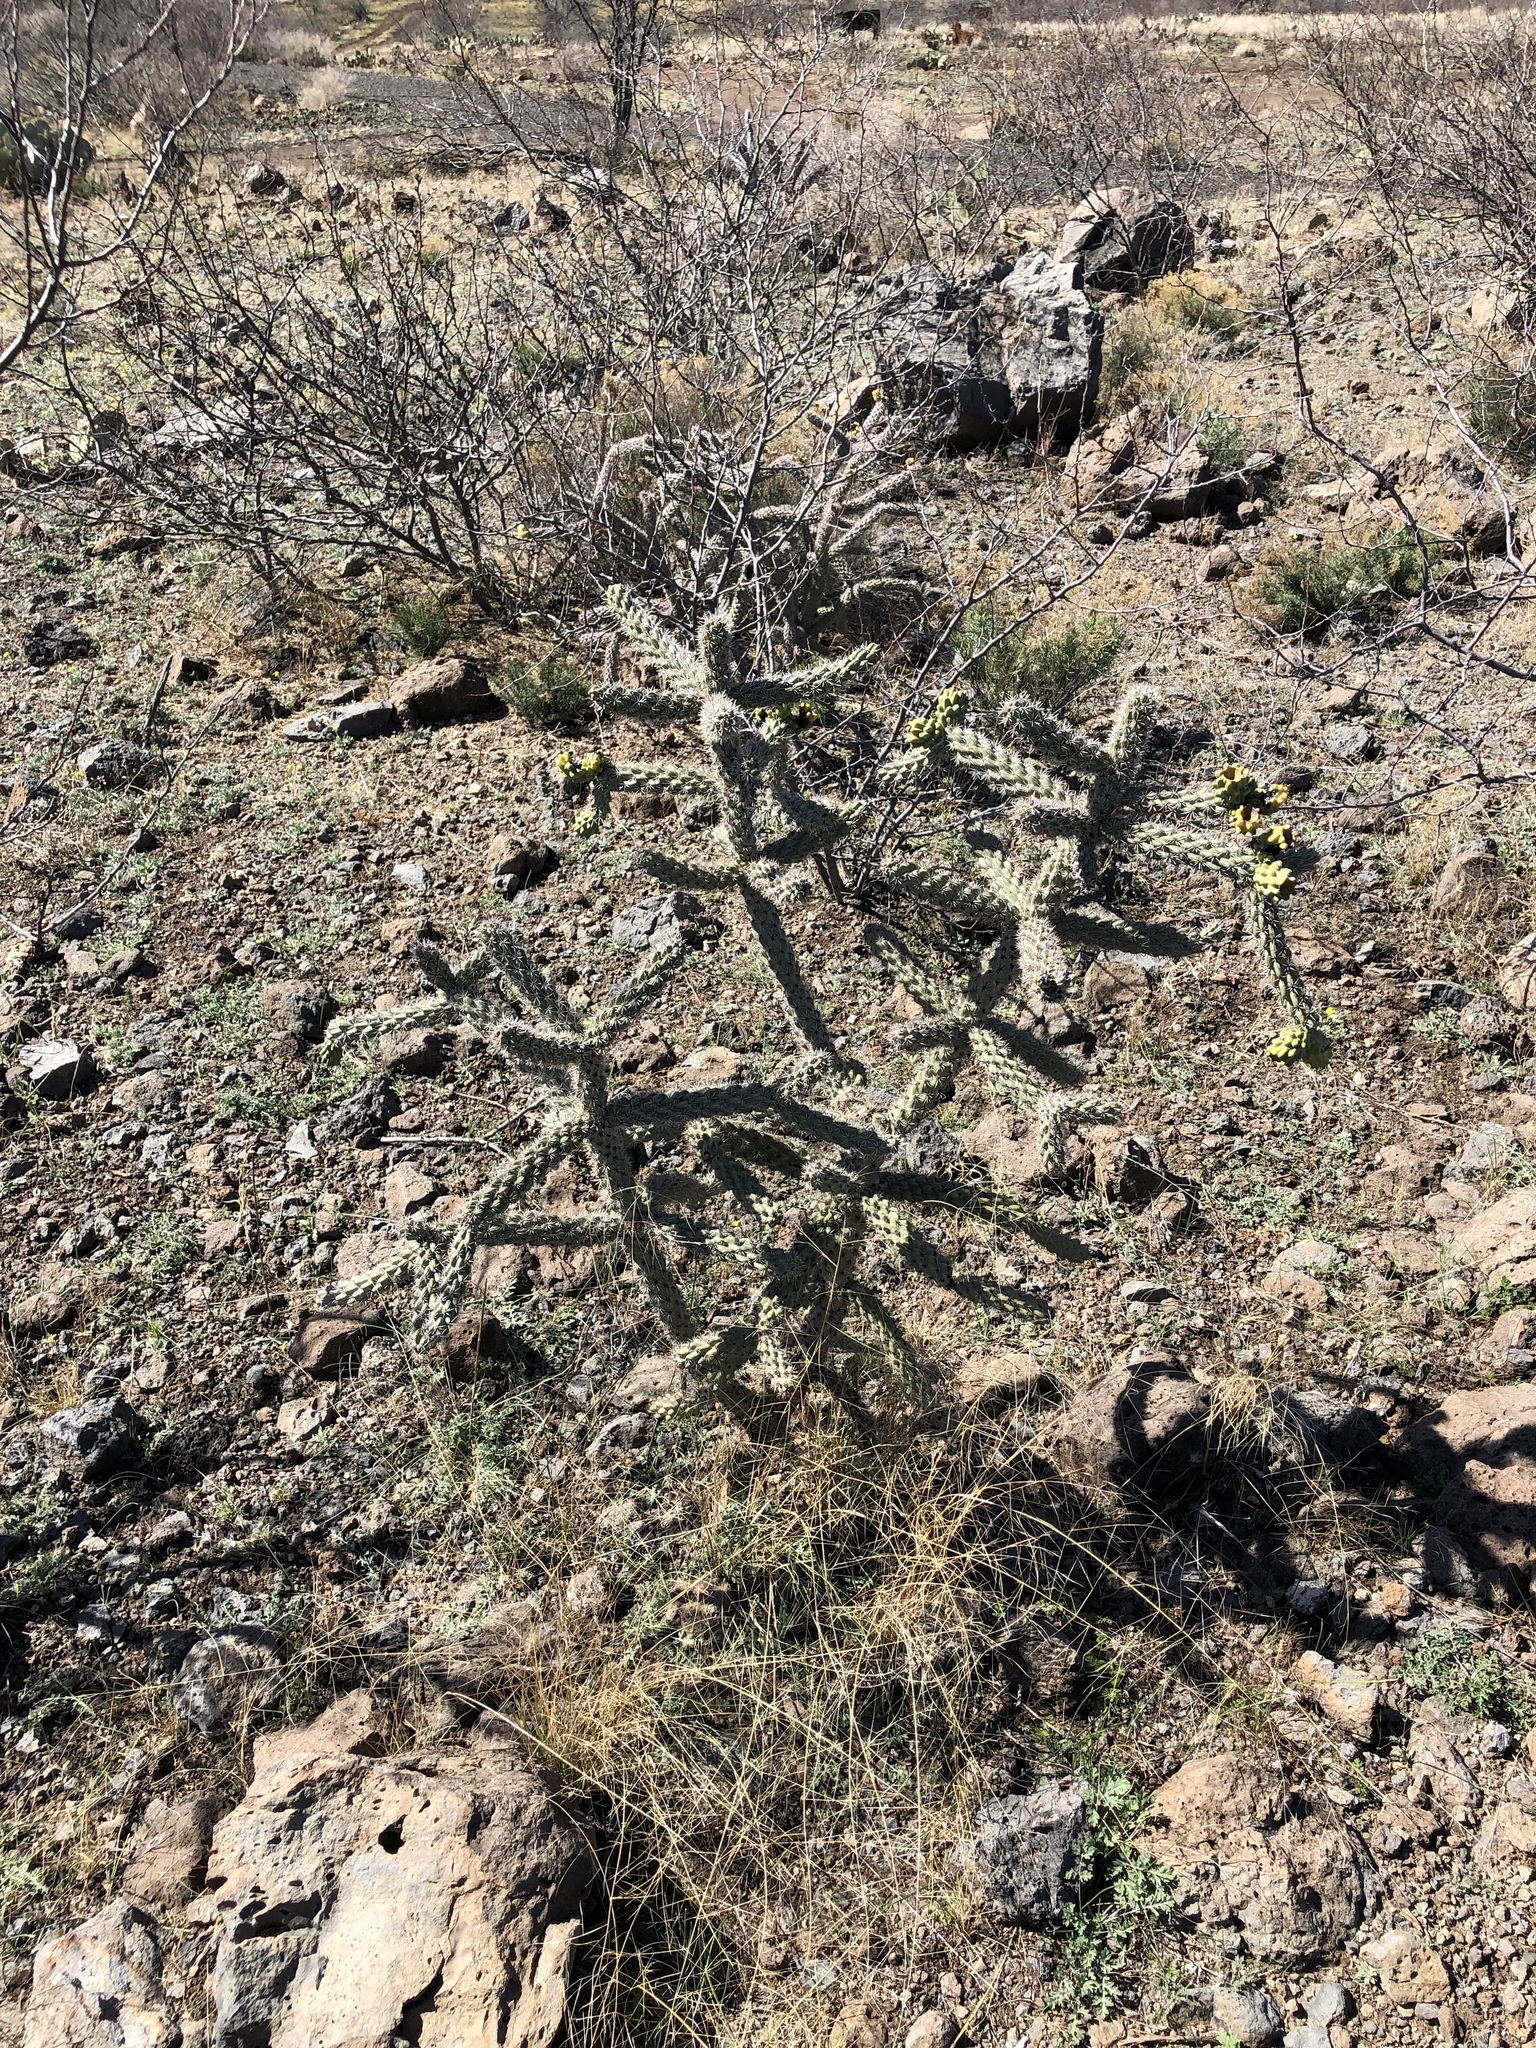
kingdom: Plantae
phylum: Tracheophyta
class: Magnoliopsida
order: Caryophyllales
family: Cactaceae
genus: Cylindropuntia
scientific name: Cylindropuntia imbricata
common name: Candelabrum cactus
